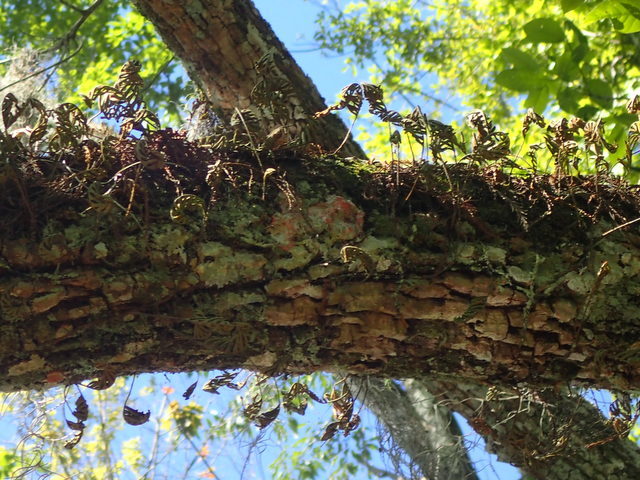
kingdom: Plantae
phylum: Tracheophyta
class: Polypodiopsida
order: Polypodiales
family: Polypodiaceae
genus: Pleopeltis
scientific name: Pleopeltis michauxiana
